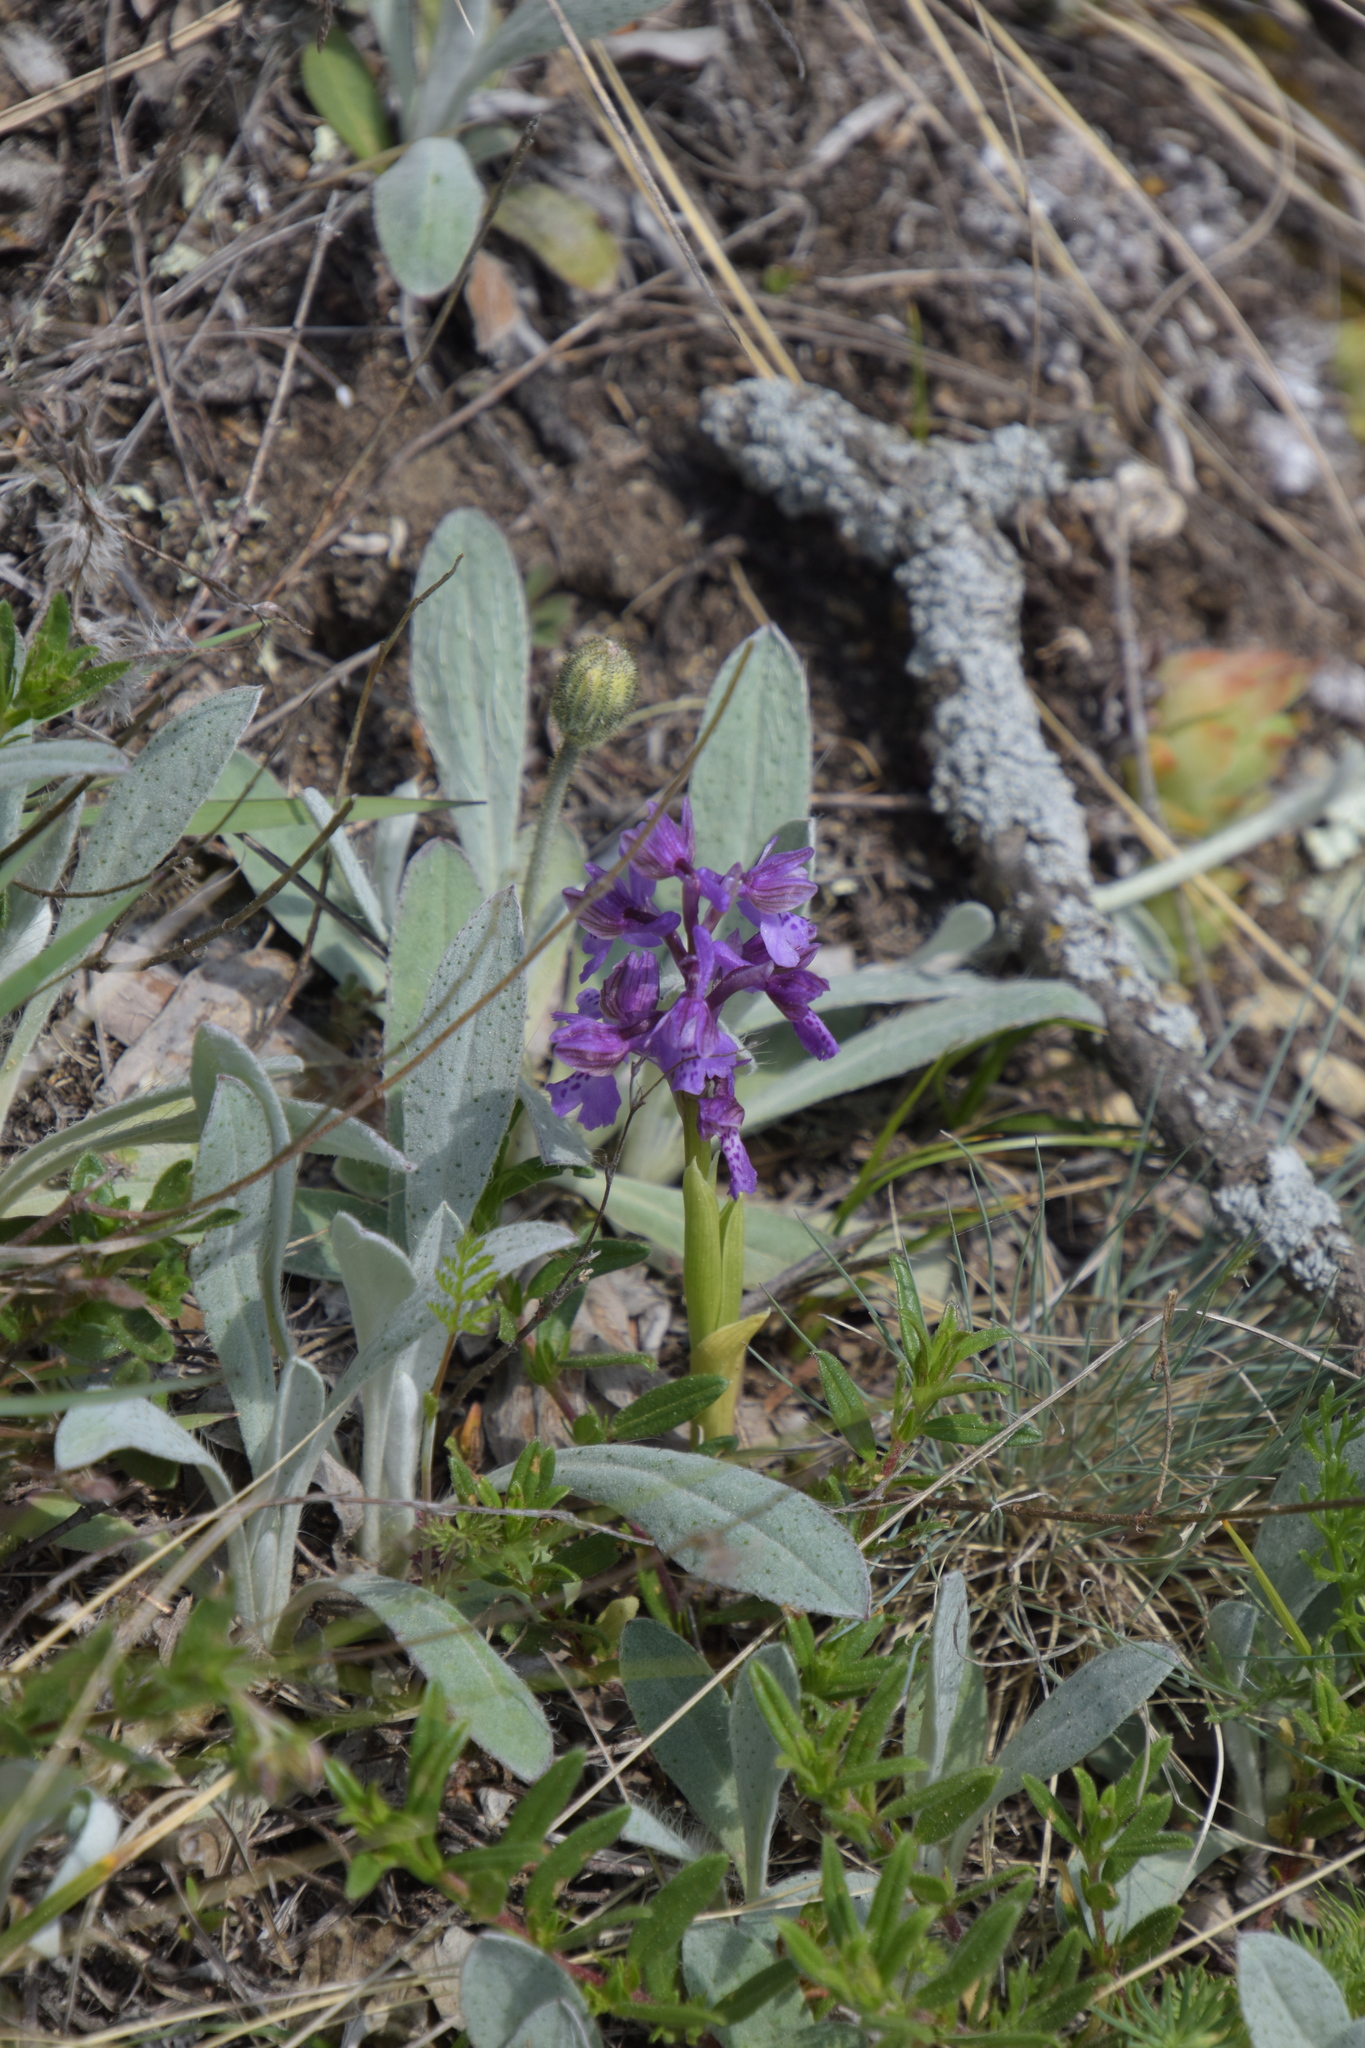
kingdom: Plantae
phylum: Tracheophyta
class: Liliopsida
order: Asparagales
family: Orchidaceae
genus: Anacamptis
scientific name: Anacamptis morio
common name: Green-winged orchid
